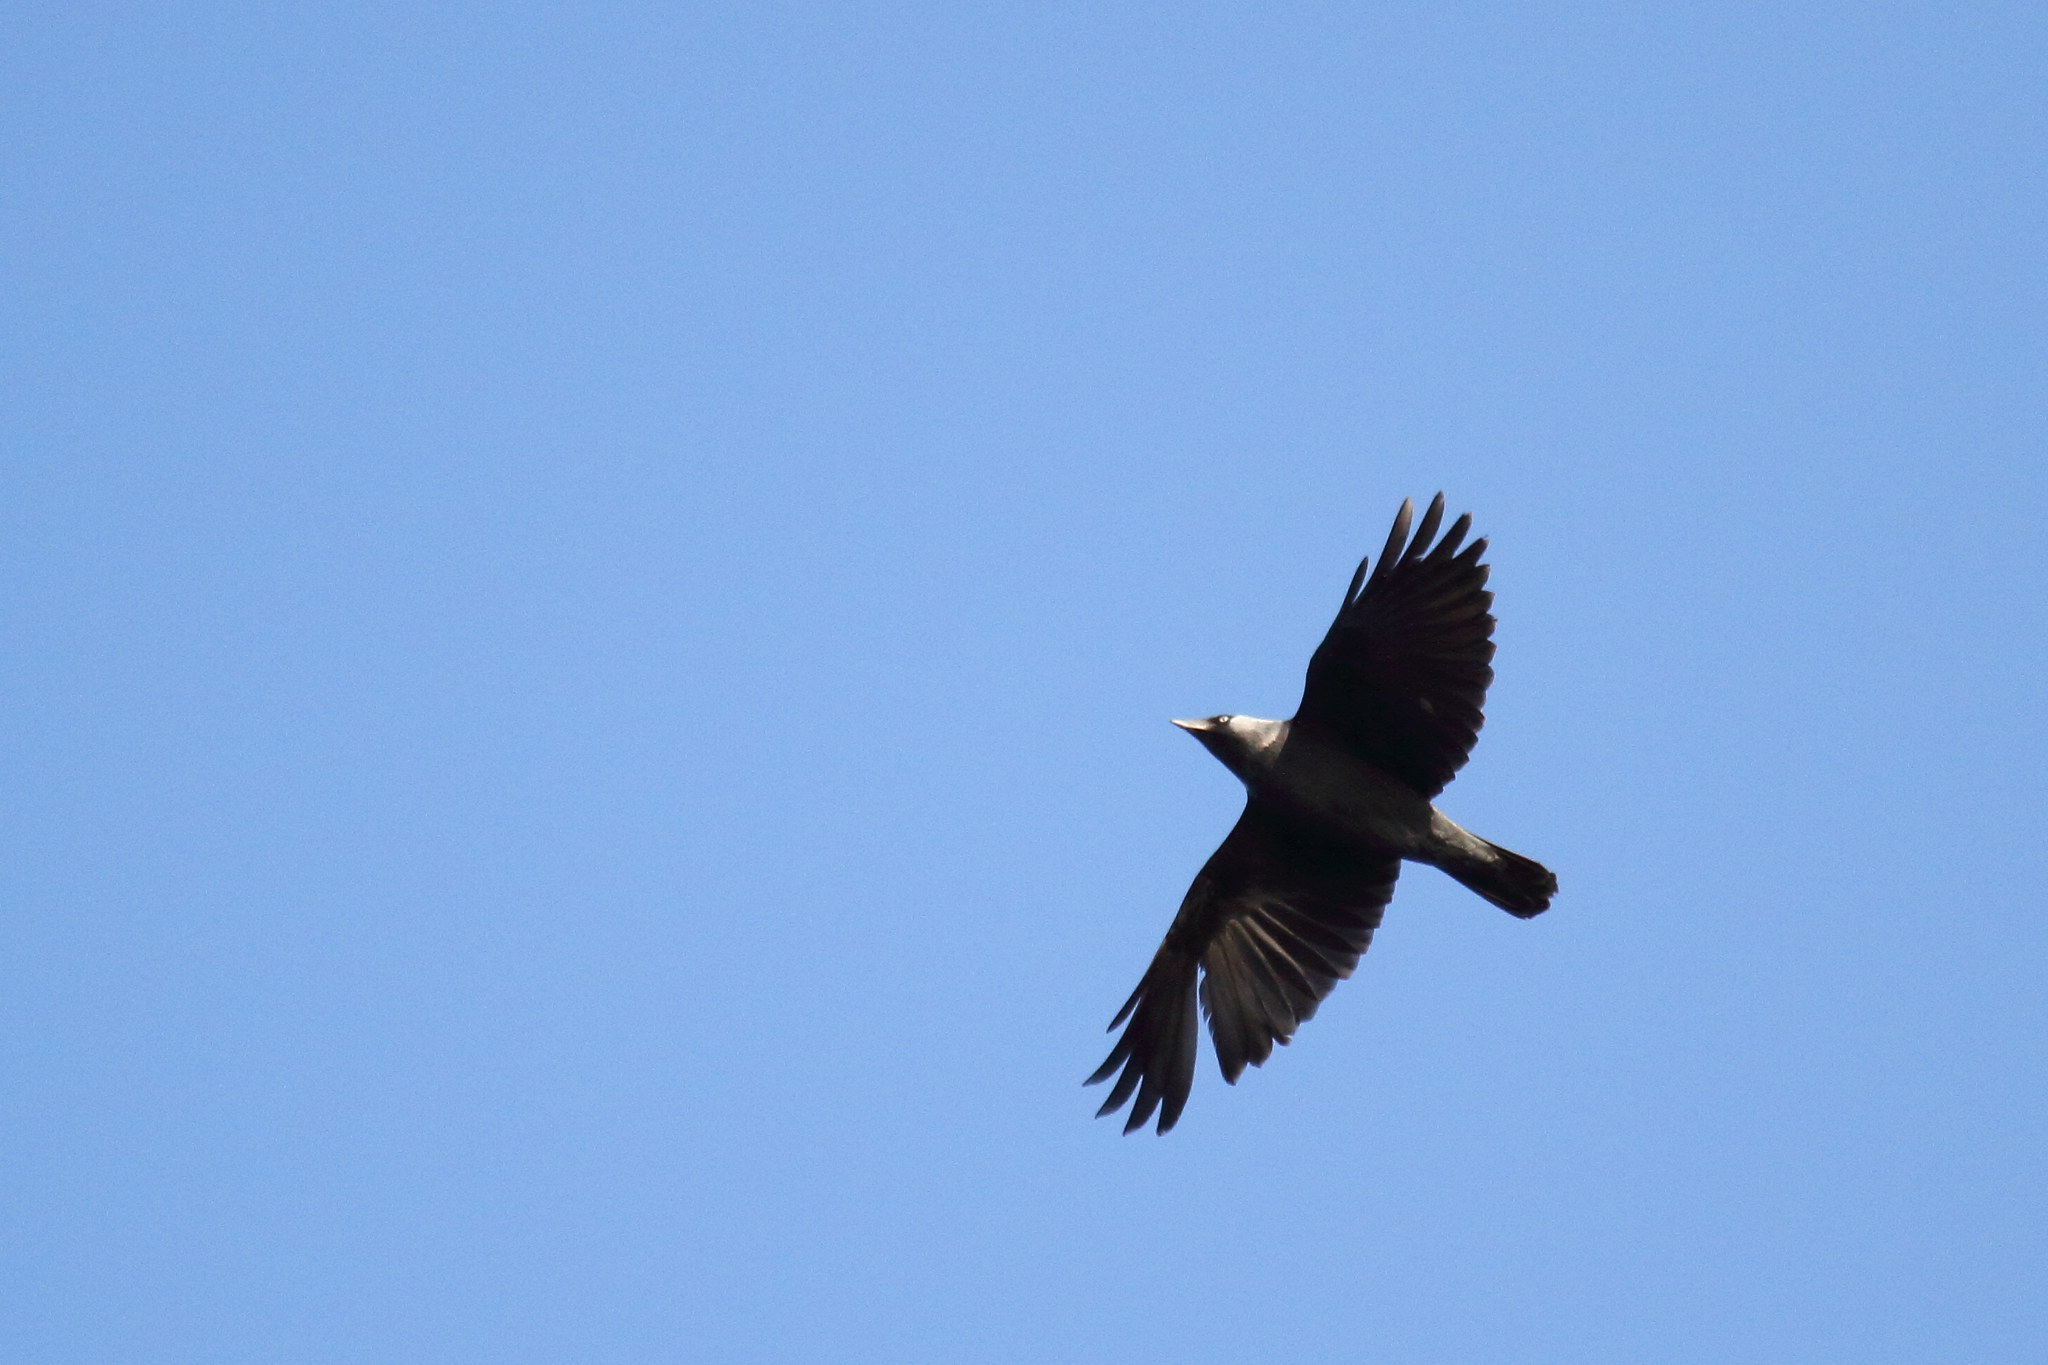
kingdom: Animalia
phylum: Chordata
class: Aves
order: Passeriformes
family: Corvidae
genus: Coloeus
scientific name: Coloeus monedula
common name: Western jackdaw
